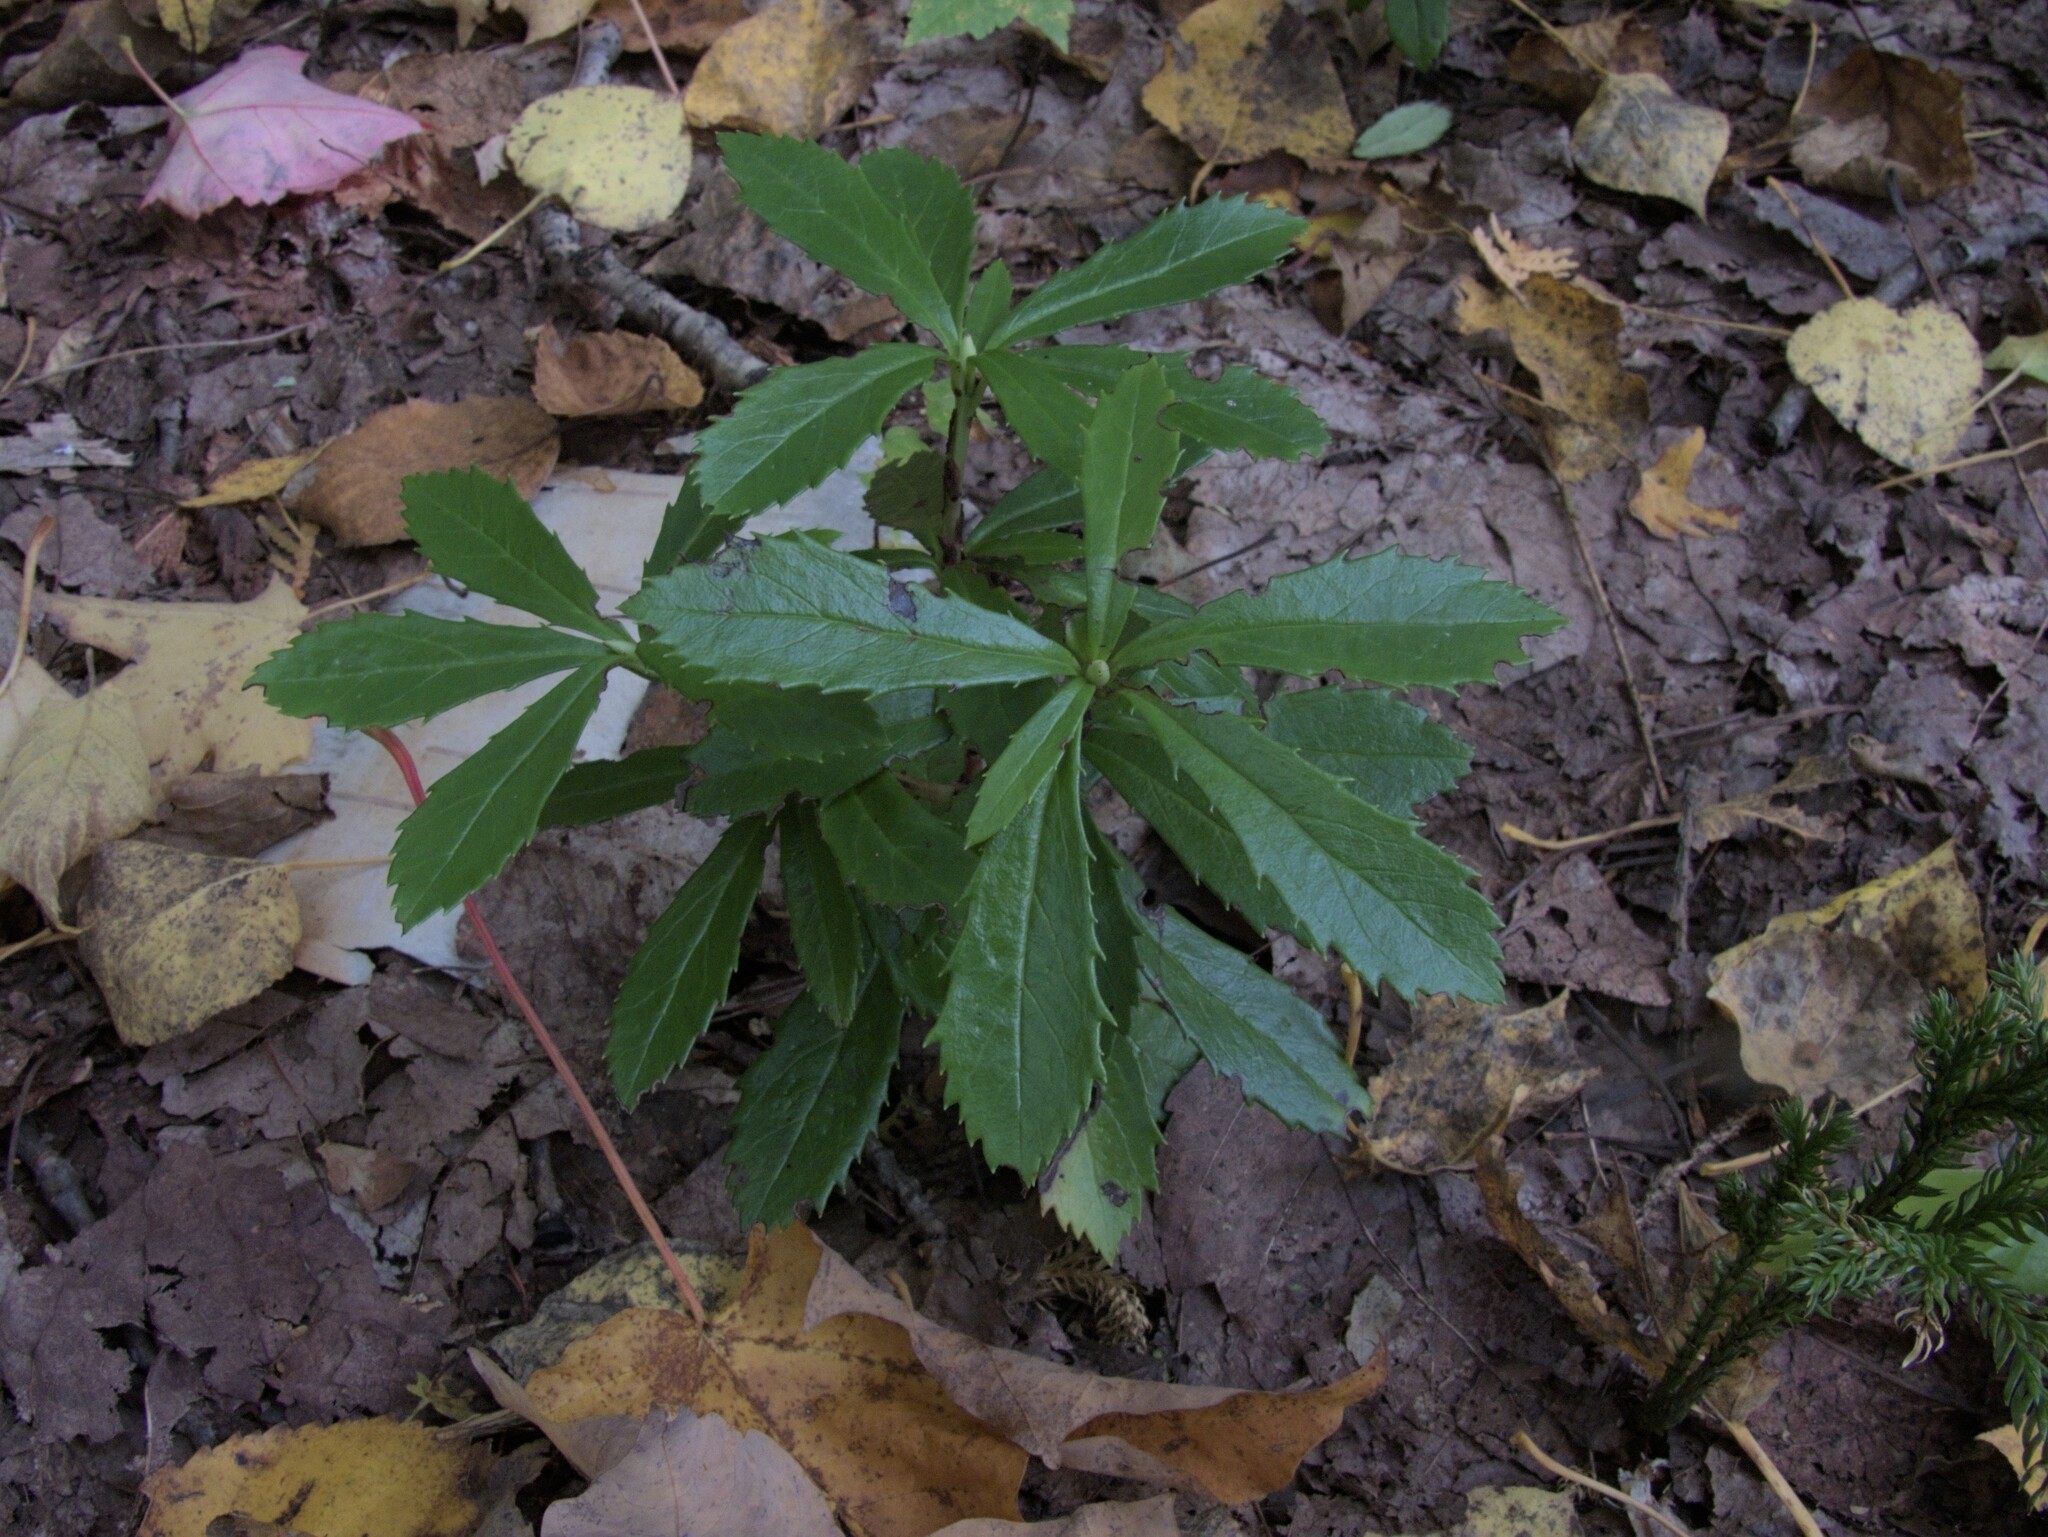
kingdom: Plantae
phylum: Tracheophyta
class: Magnoliopsida
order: Ericales
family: Ericaceae
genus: Chimaphila
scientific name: Chimaphila umbellata
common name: Pipsissewa
